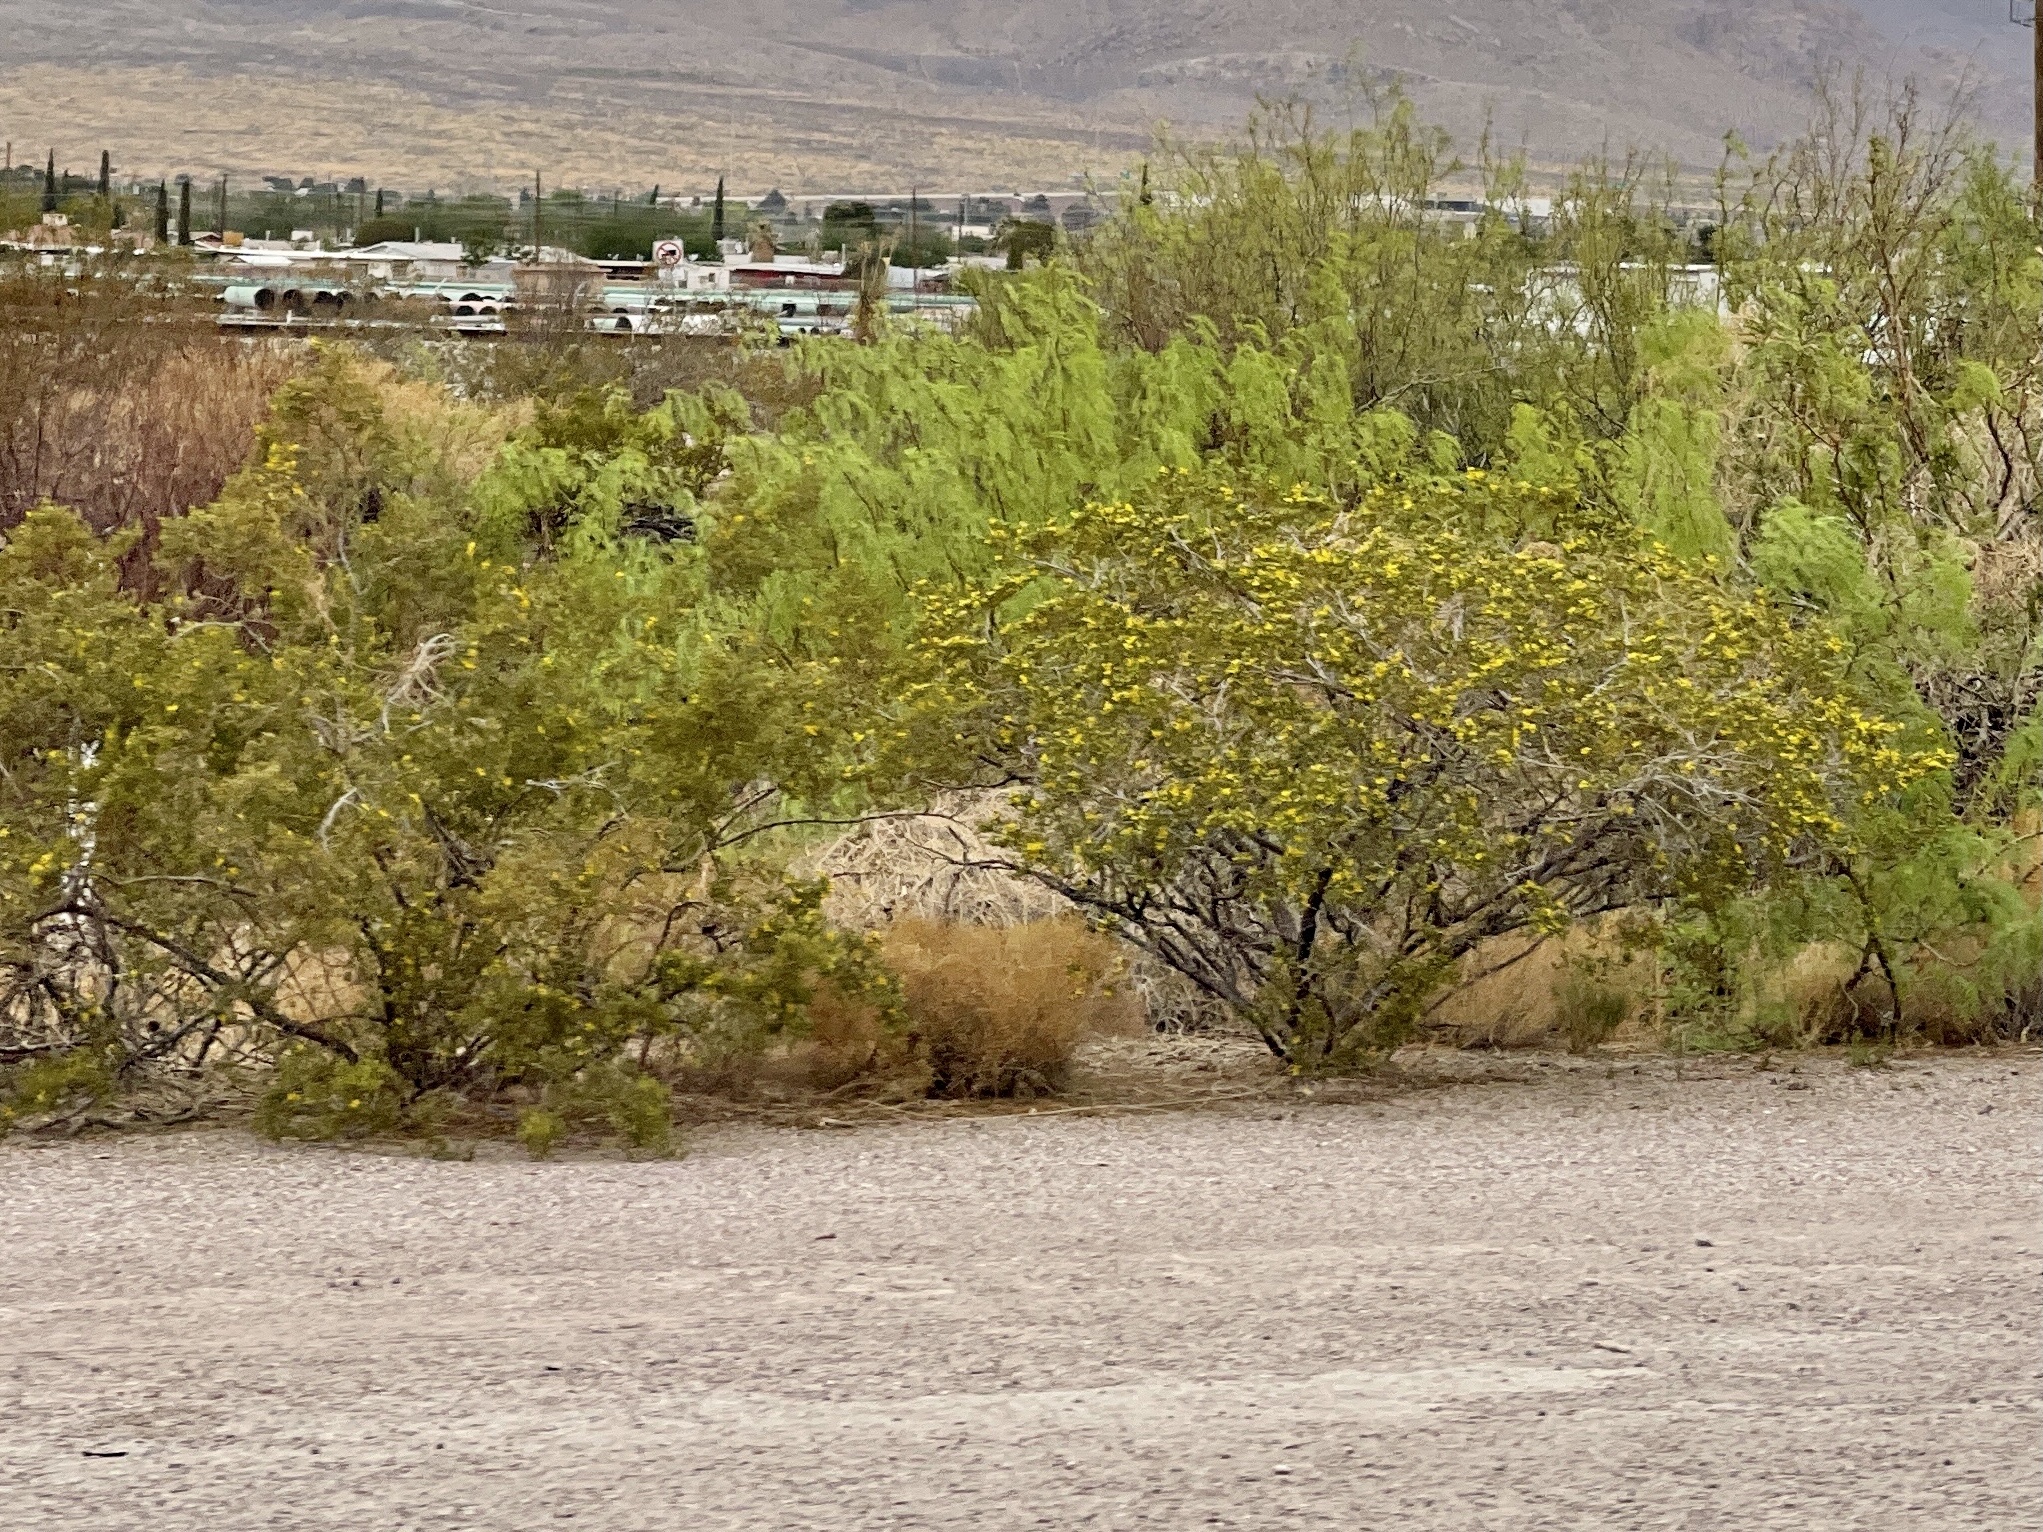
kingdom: Plantae
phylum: Tracheophyta
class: Magnoliopsida
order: Zygophyllales
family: Zygophyllaceae
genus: Larrea
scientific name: Larrea tridentata
